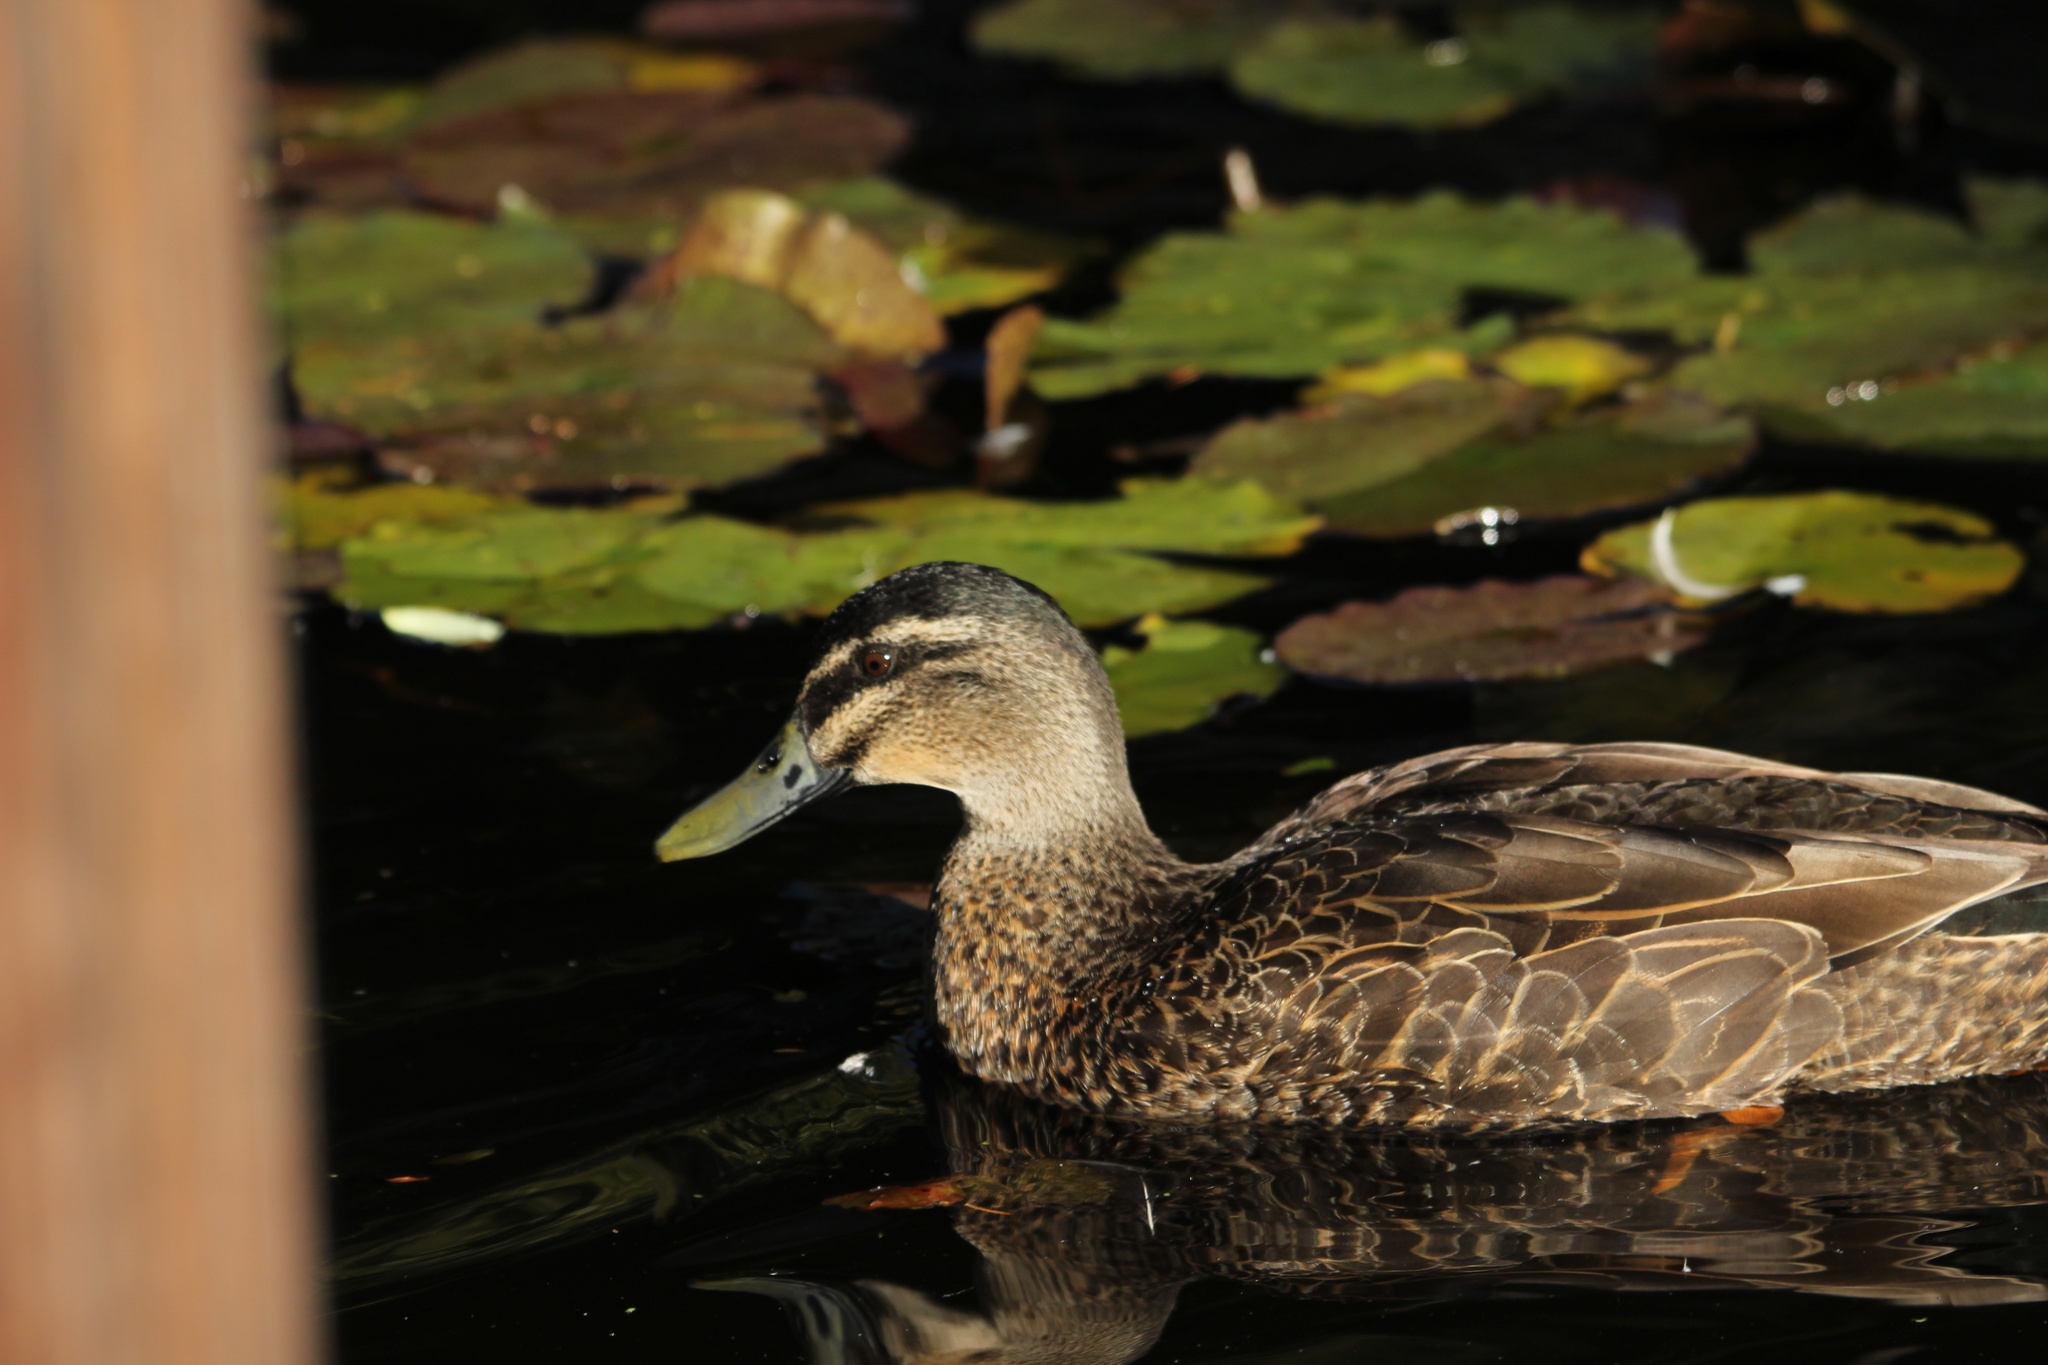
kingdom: Animalia
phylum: Chordata
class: Aves
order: Anseriformes
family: Anatidae
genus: Anas
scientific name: Anas
